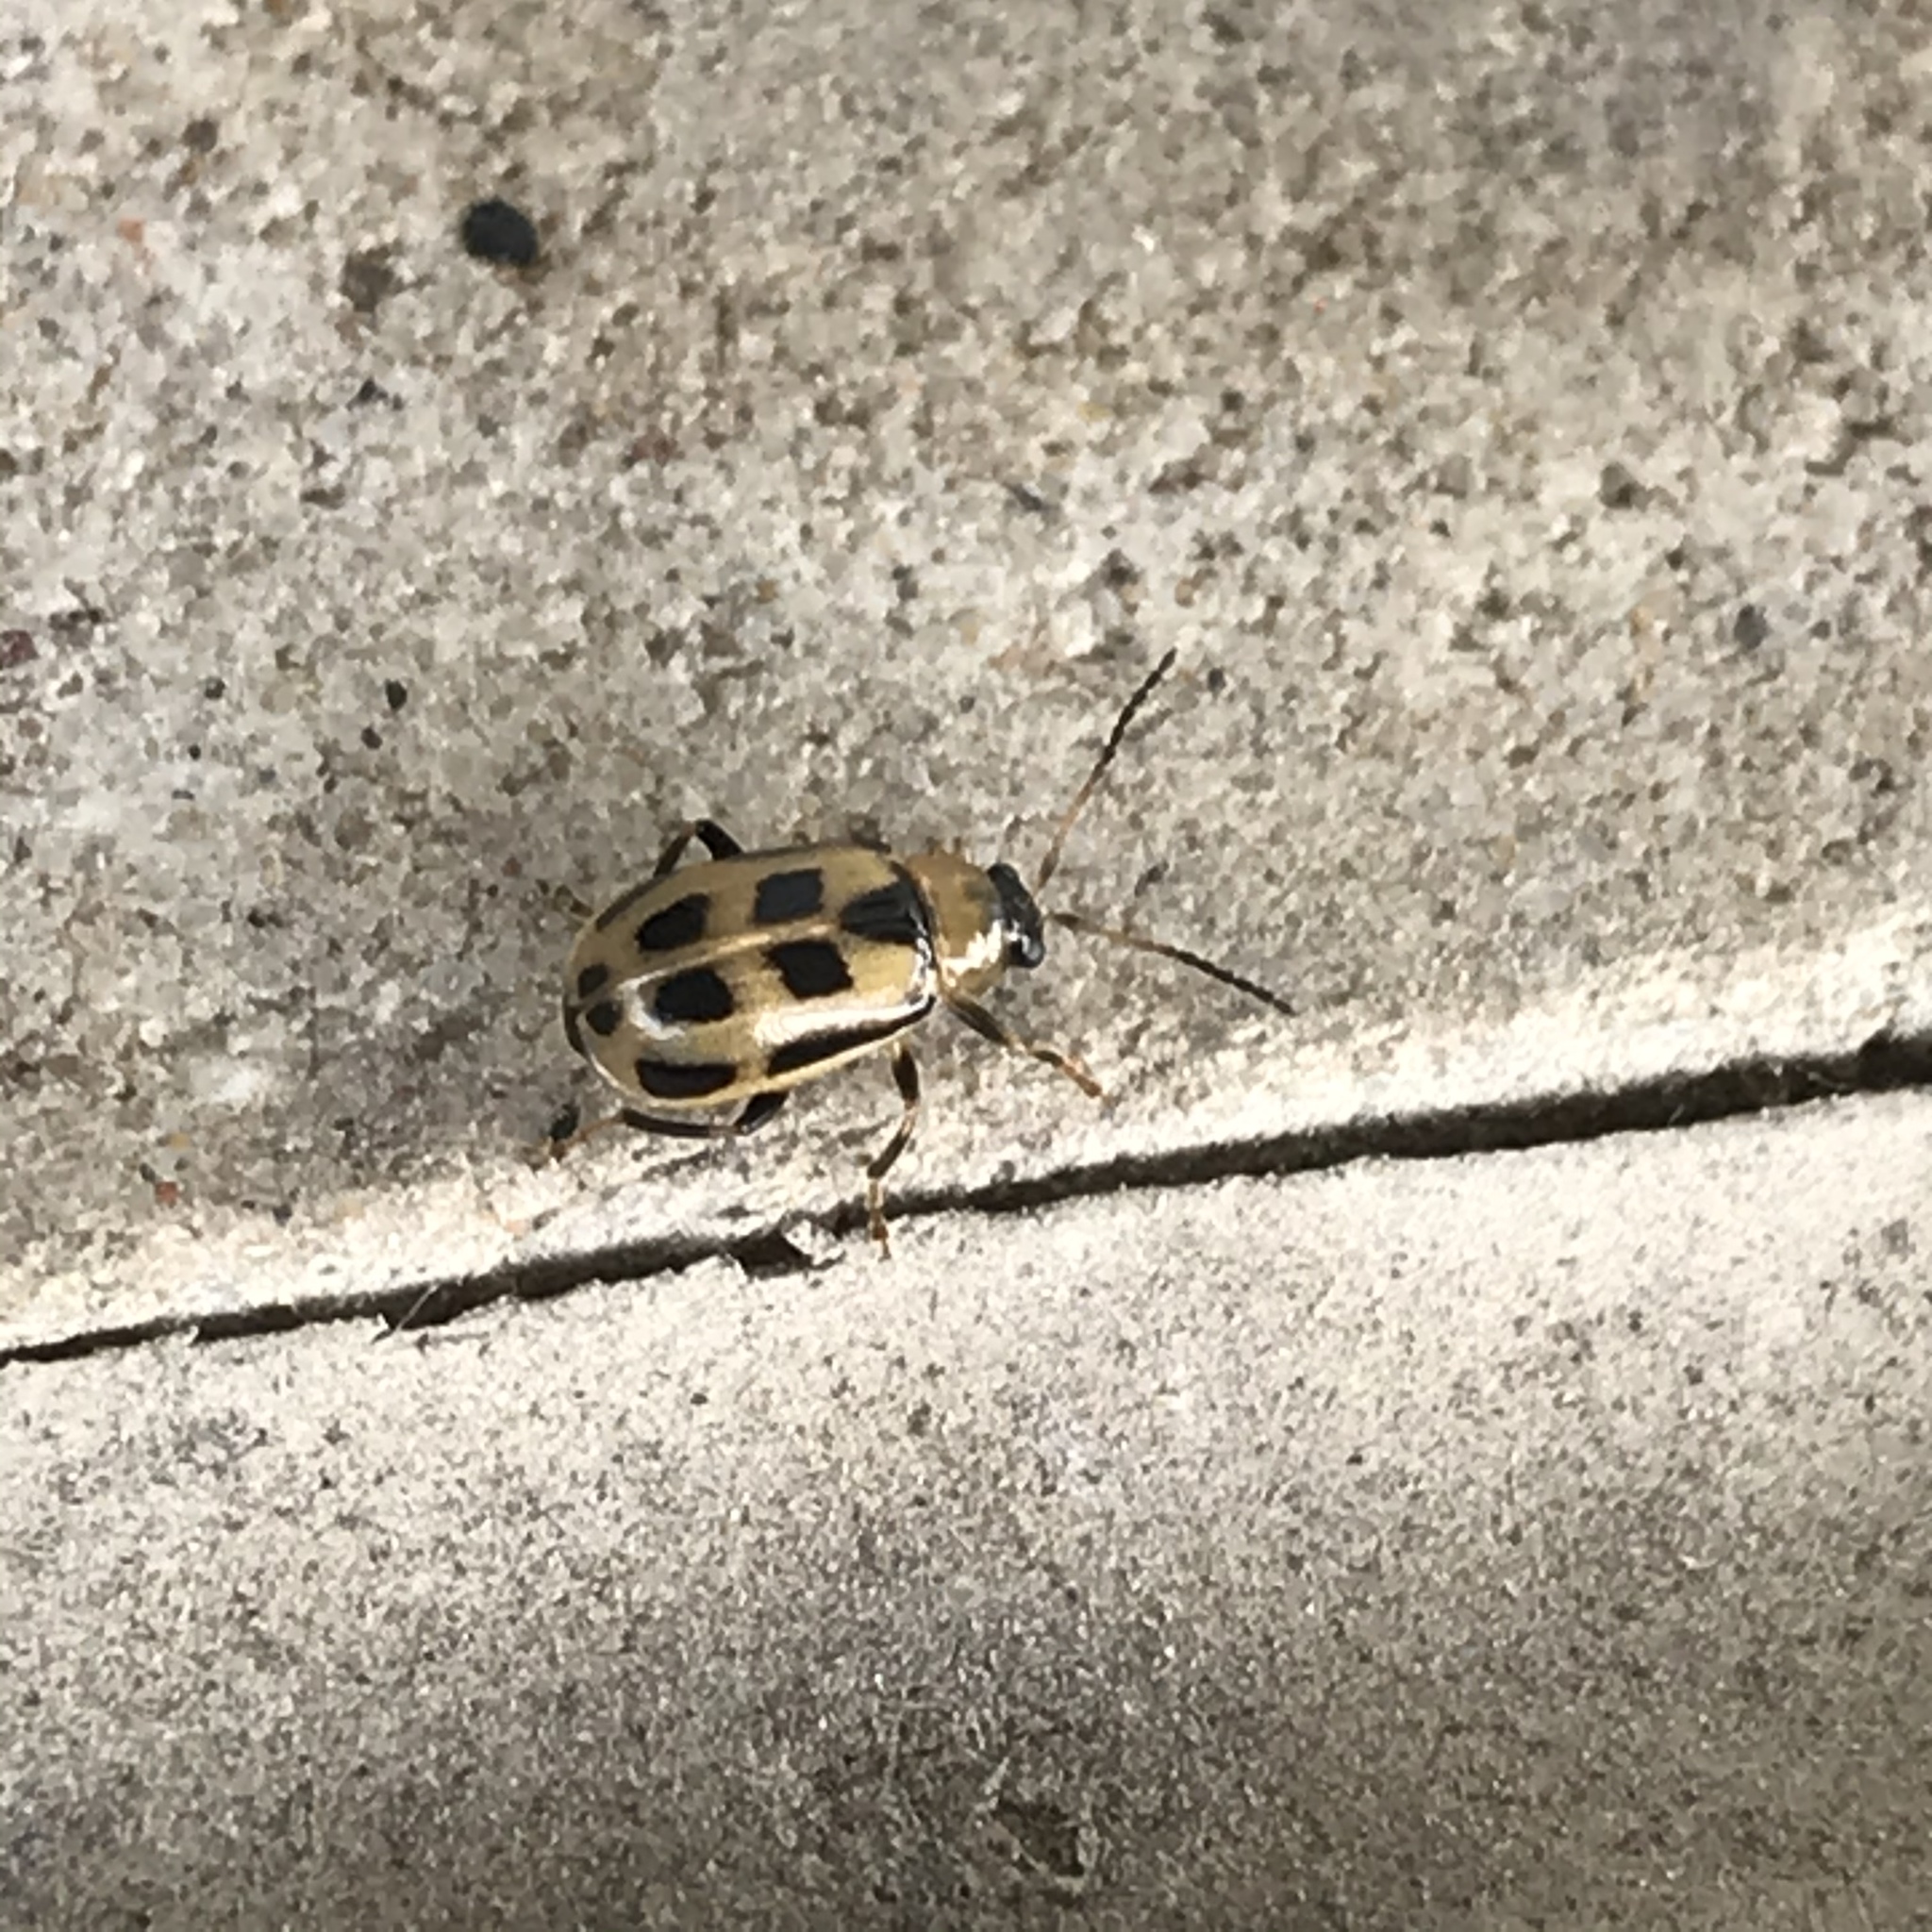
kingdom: Animalia
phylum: Arthropoda
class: Insecta
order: Coleoptera
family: Chrysomelidae
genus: Cerotoma
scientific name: Cerotoma trifurcata
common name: Bean leaf beetle
